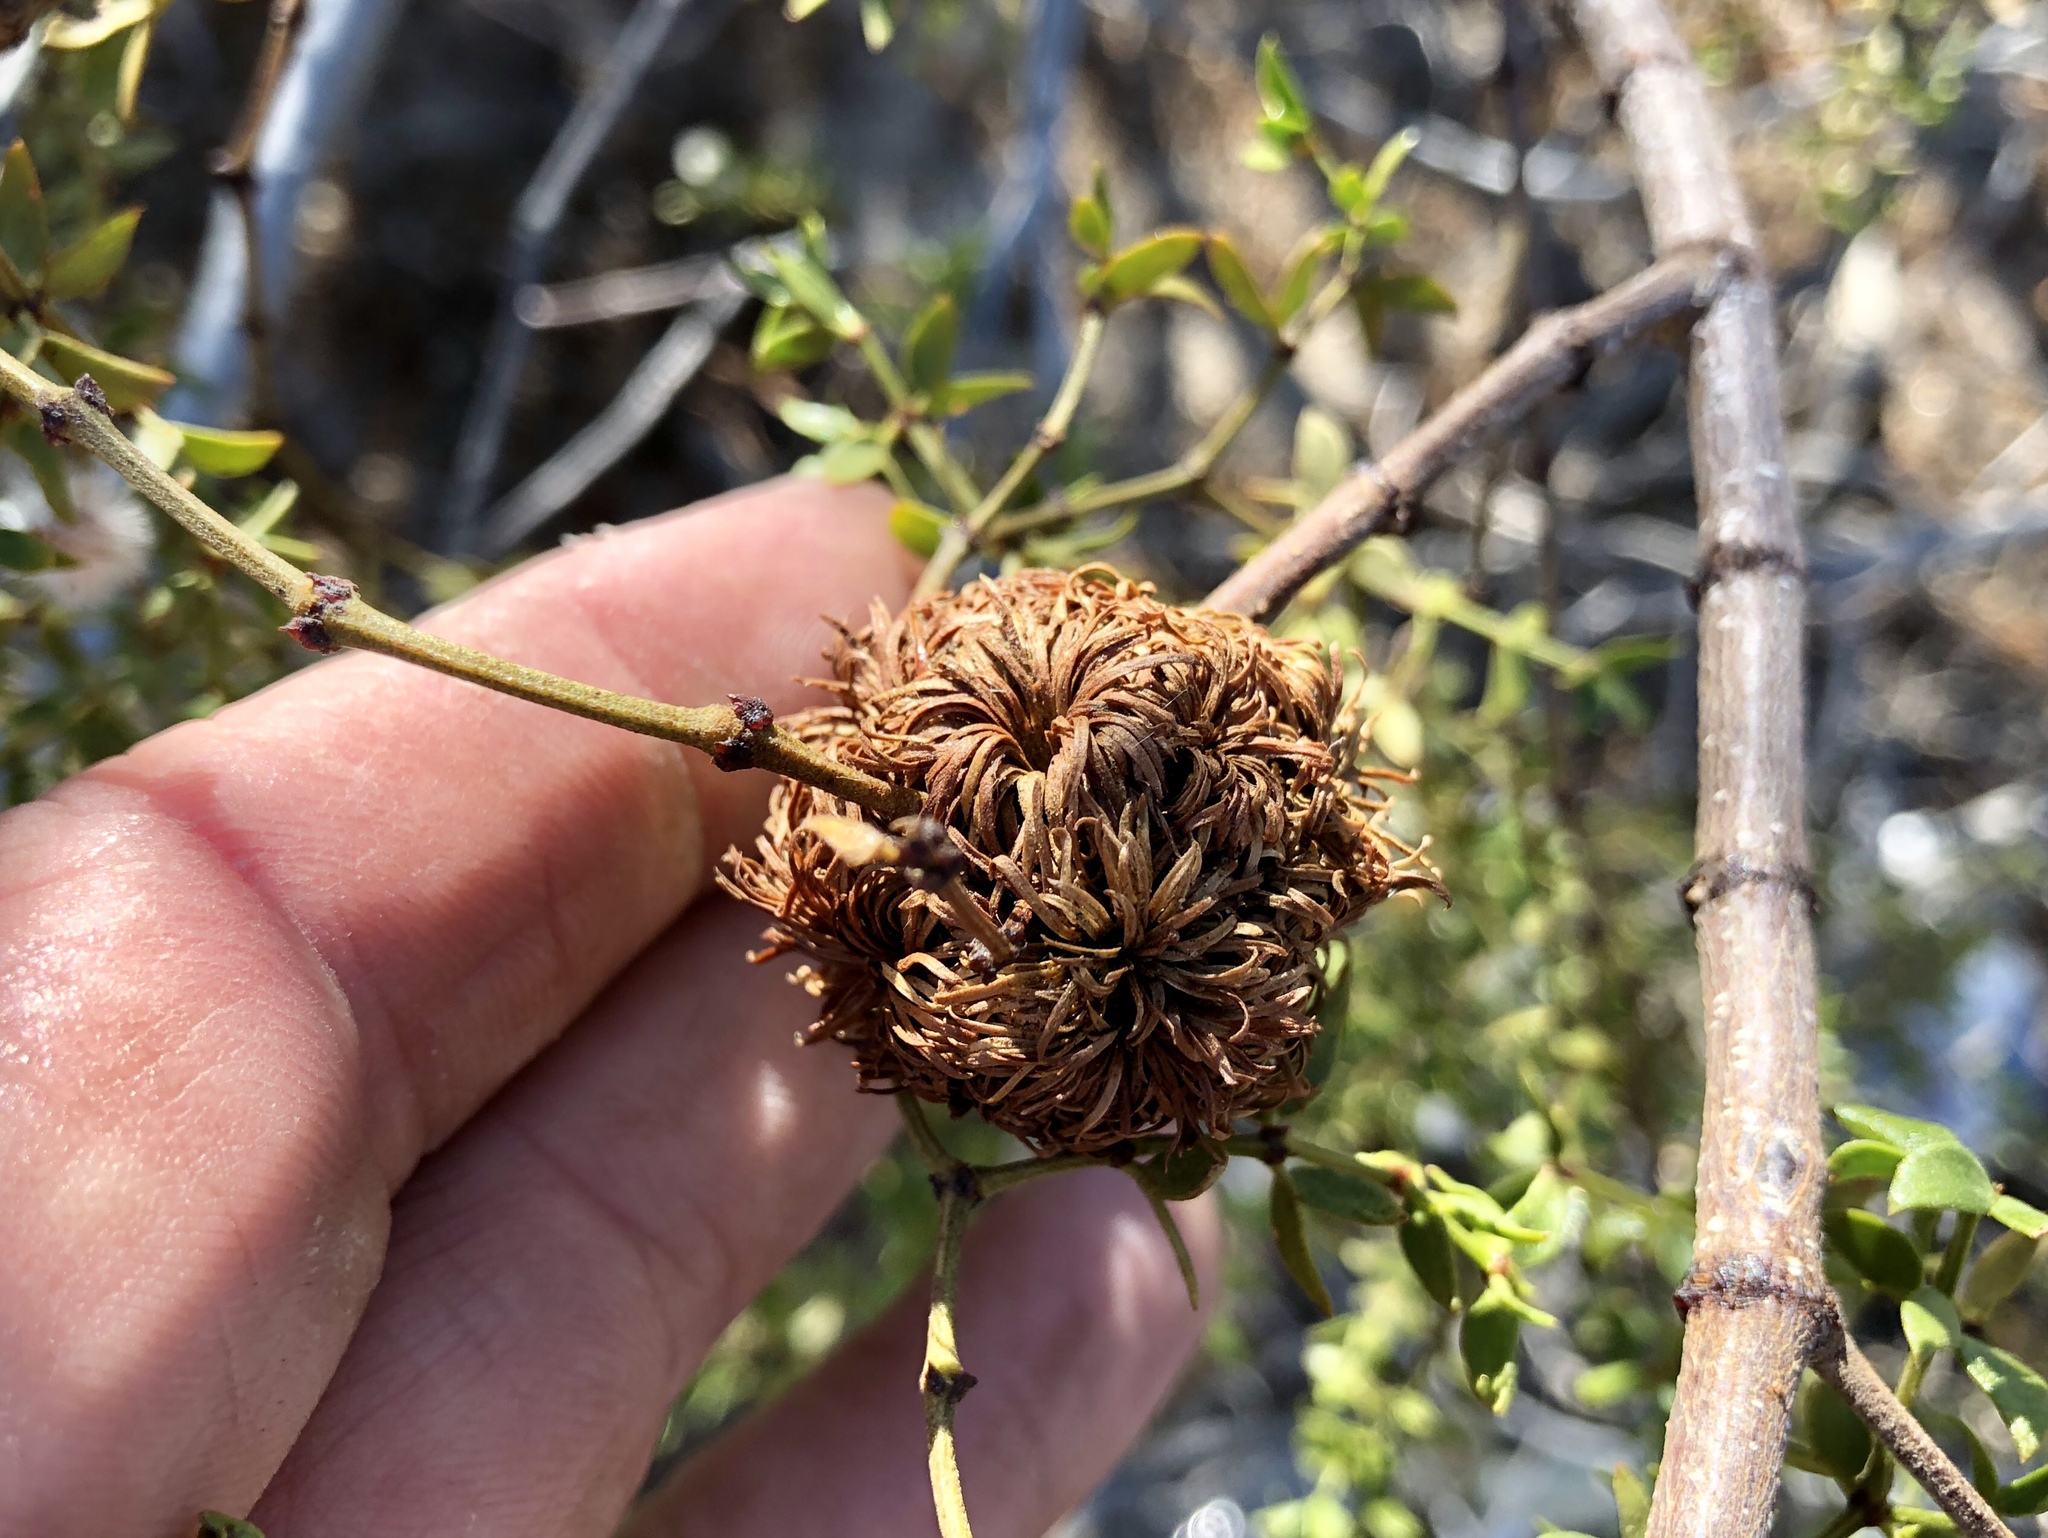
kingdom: Animalia
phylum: Arthropoda
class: Insecta
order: Diptera
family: Cecidomyiidae
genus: Asphondylia
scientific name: Asphondylia auripila
